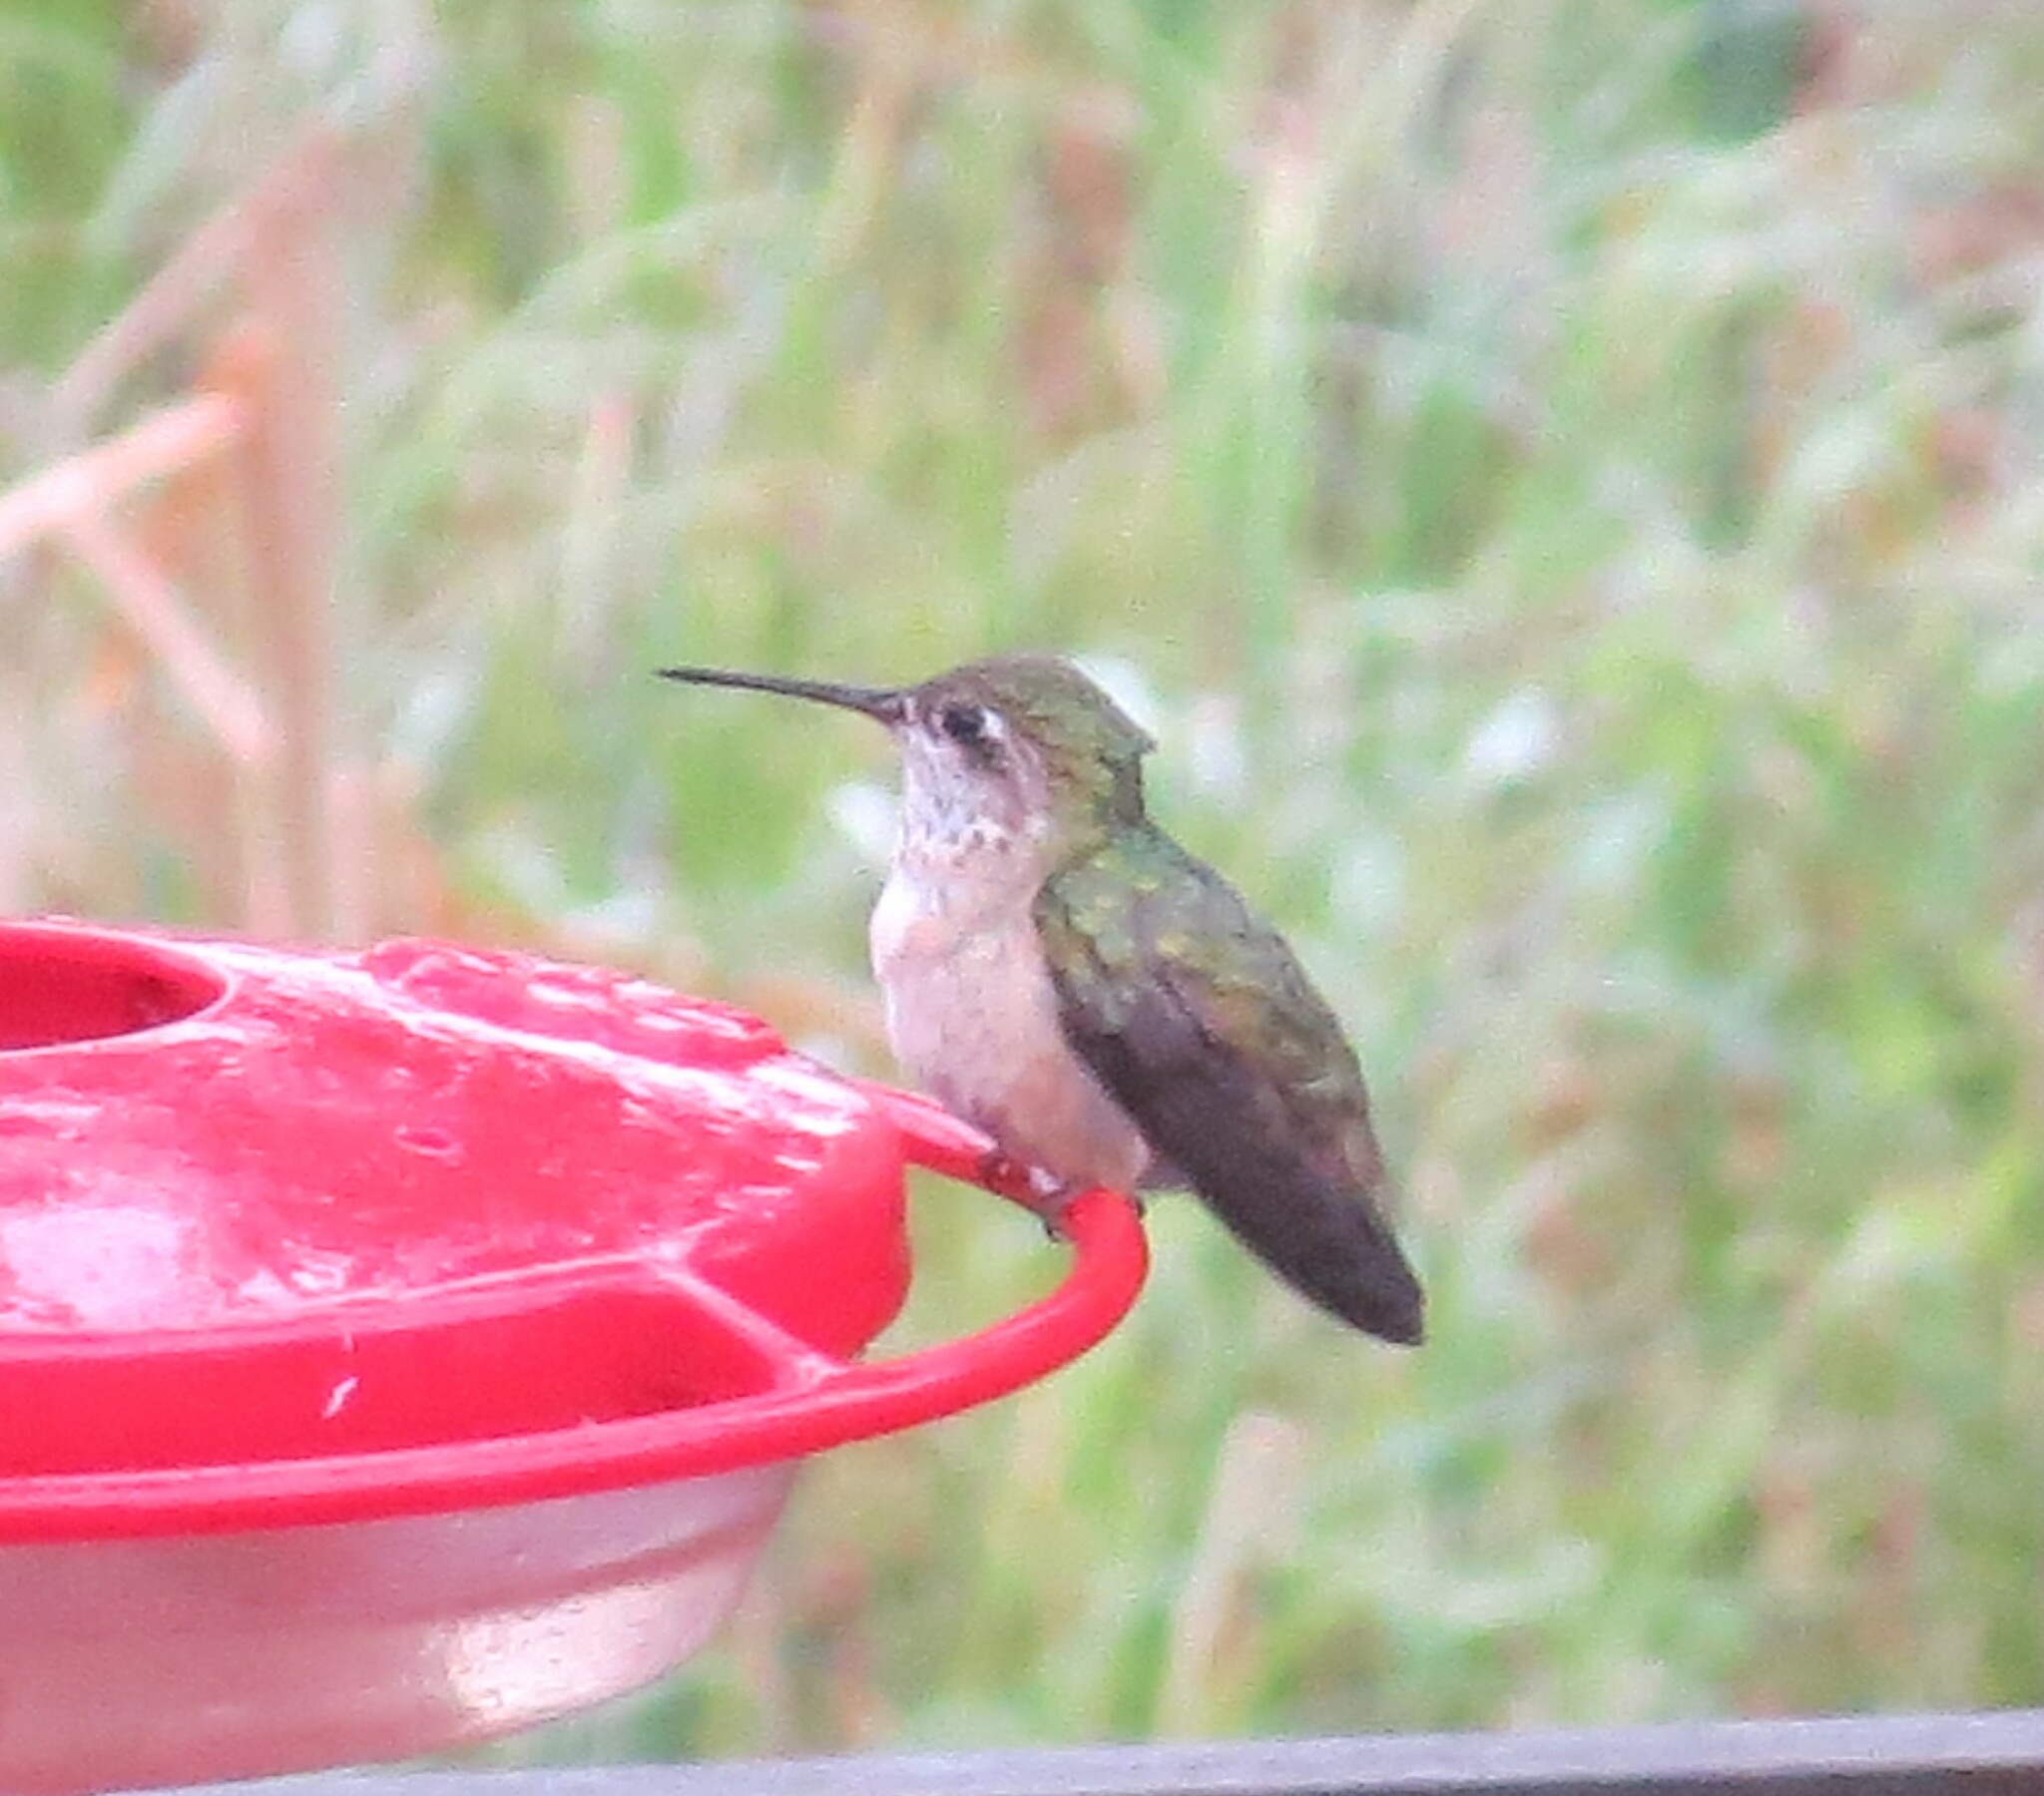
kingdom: Animalia
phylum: Chordata
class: Aves
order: Apodiformes
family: Trochilidae
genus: Selasphorus
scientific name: Selasphorus calliope
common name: Calliope hummingbird
